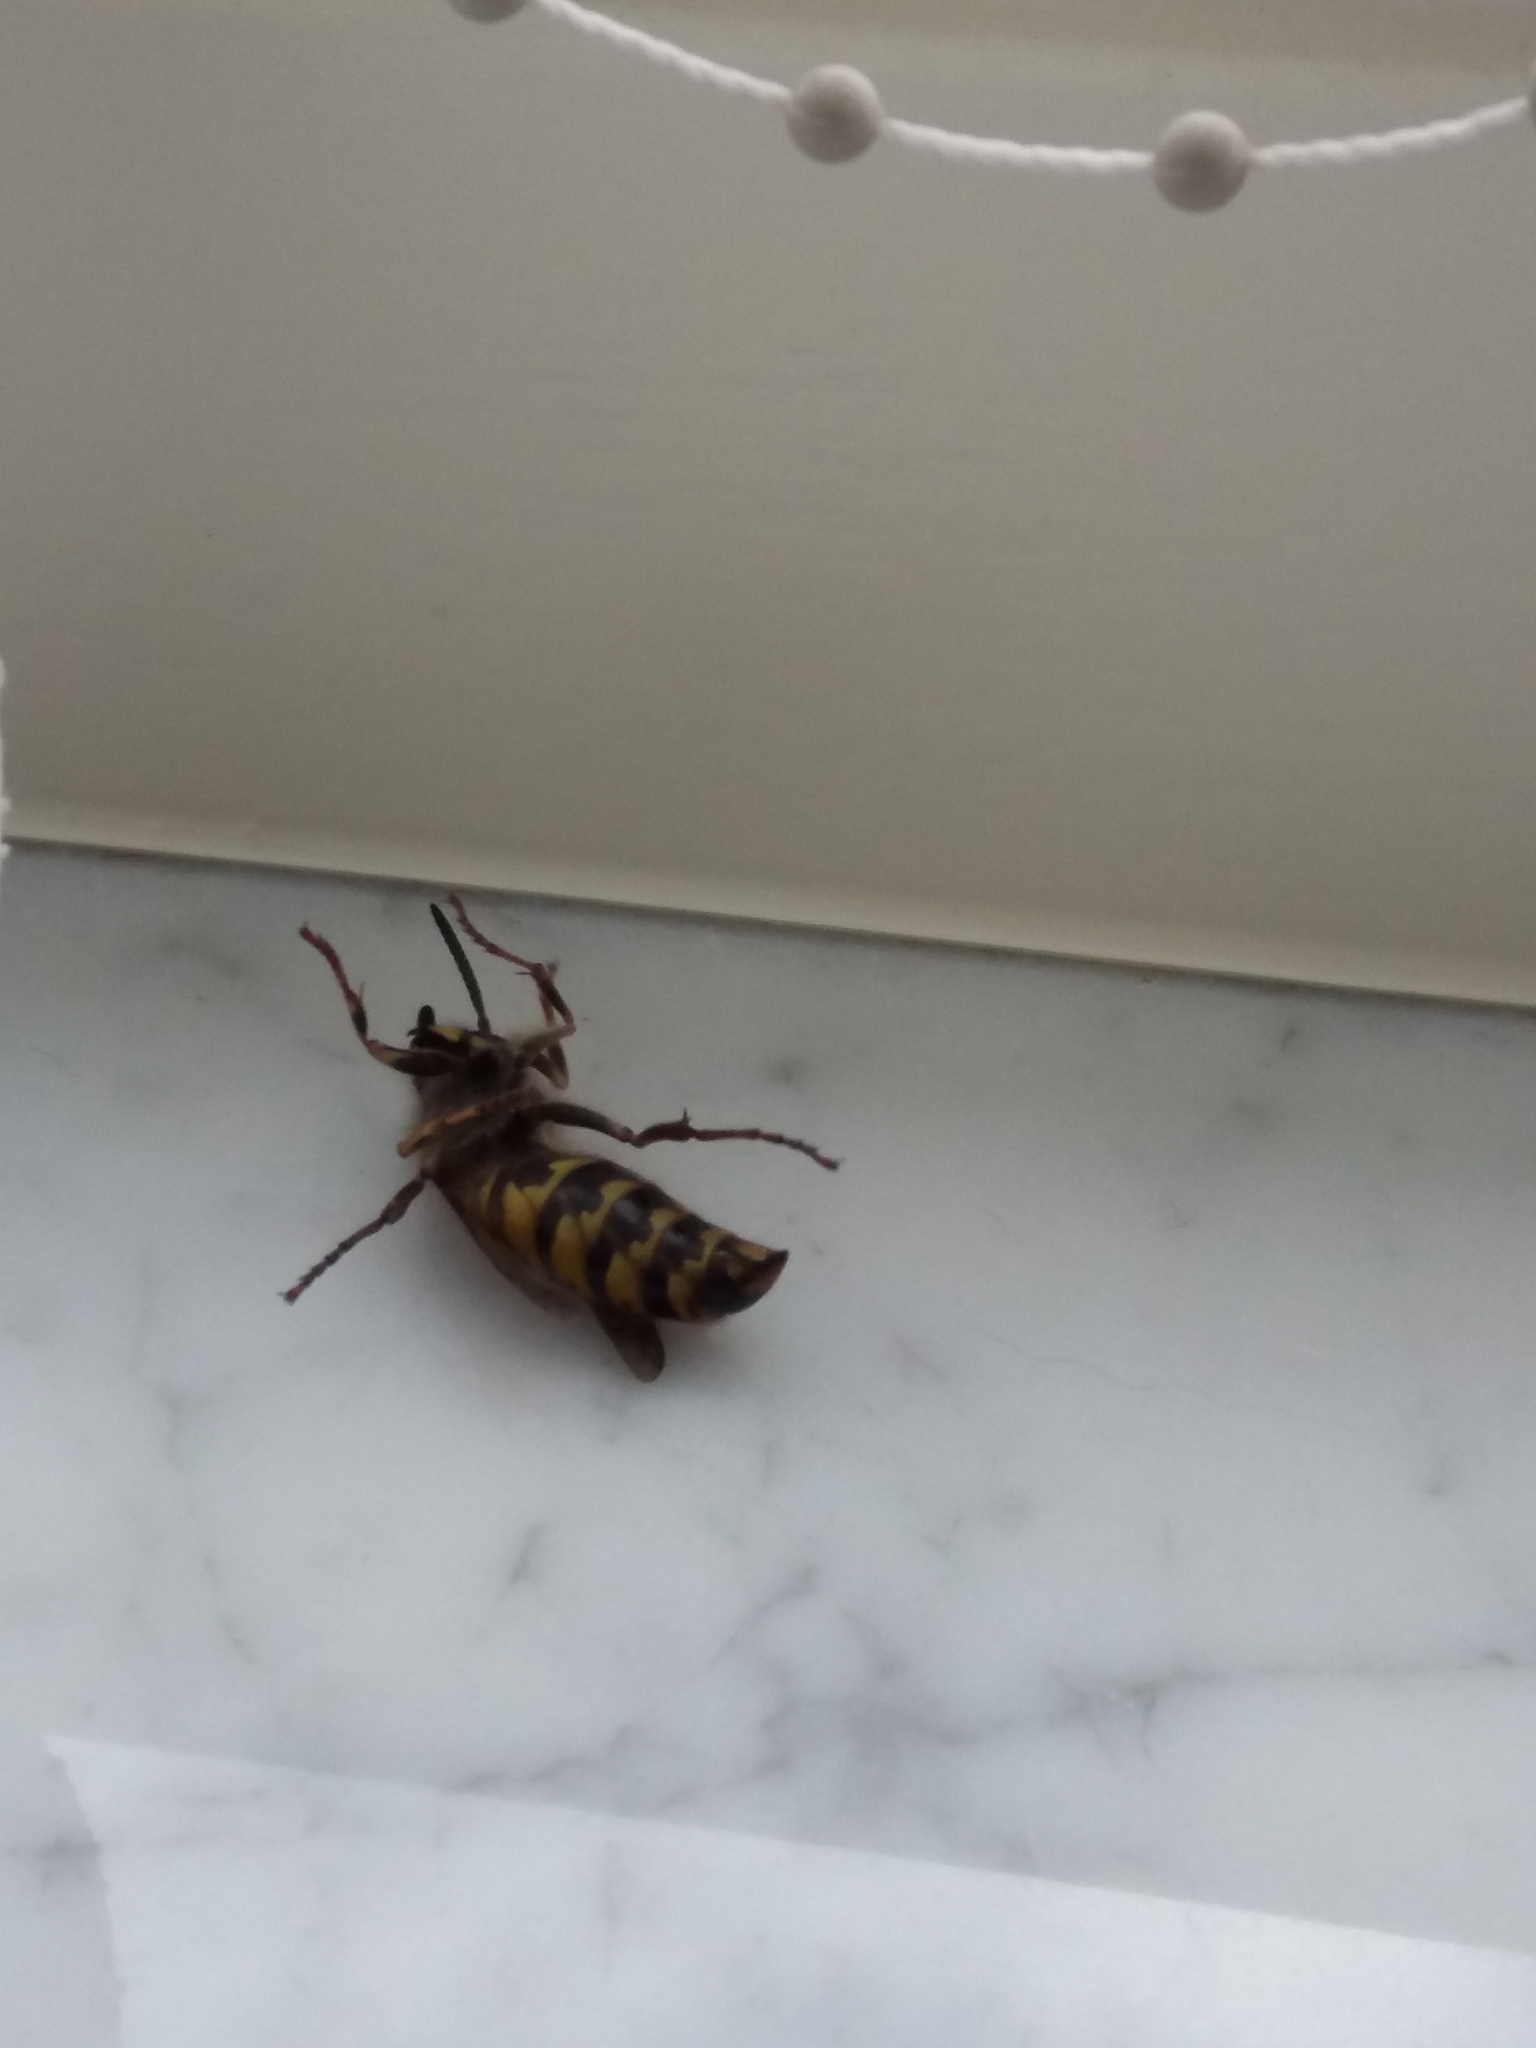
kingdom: Animalia
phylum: Arthropoda
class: Insecta
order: Hymenoptera
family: Vespidae
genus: Vespula
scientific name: Vespula vulgaris
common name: Common wasp
